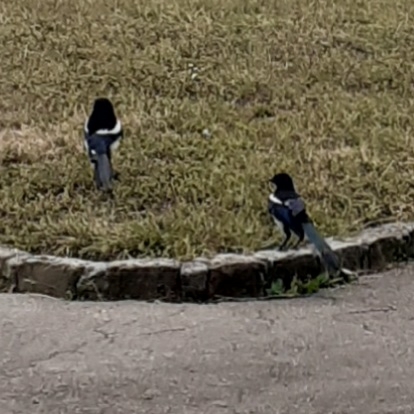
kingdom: Animalia
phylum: Chordata
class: Aves
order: Passeriformes
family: Corvidae
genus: Pica
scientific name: Pica pica
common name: Eurasian magpie
